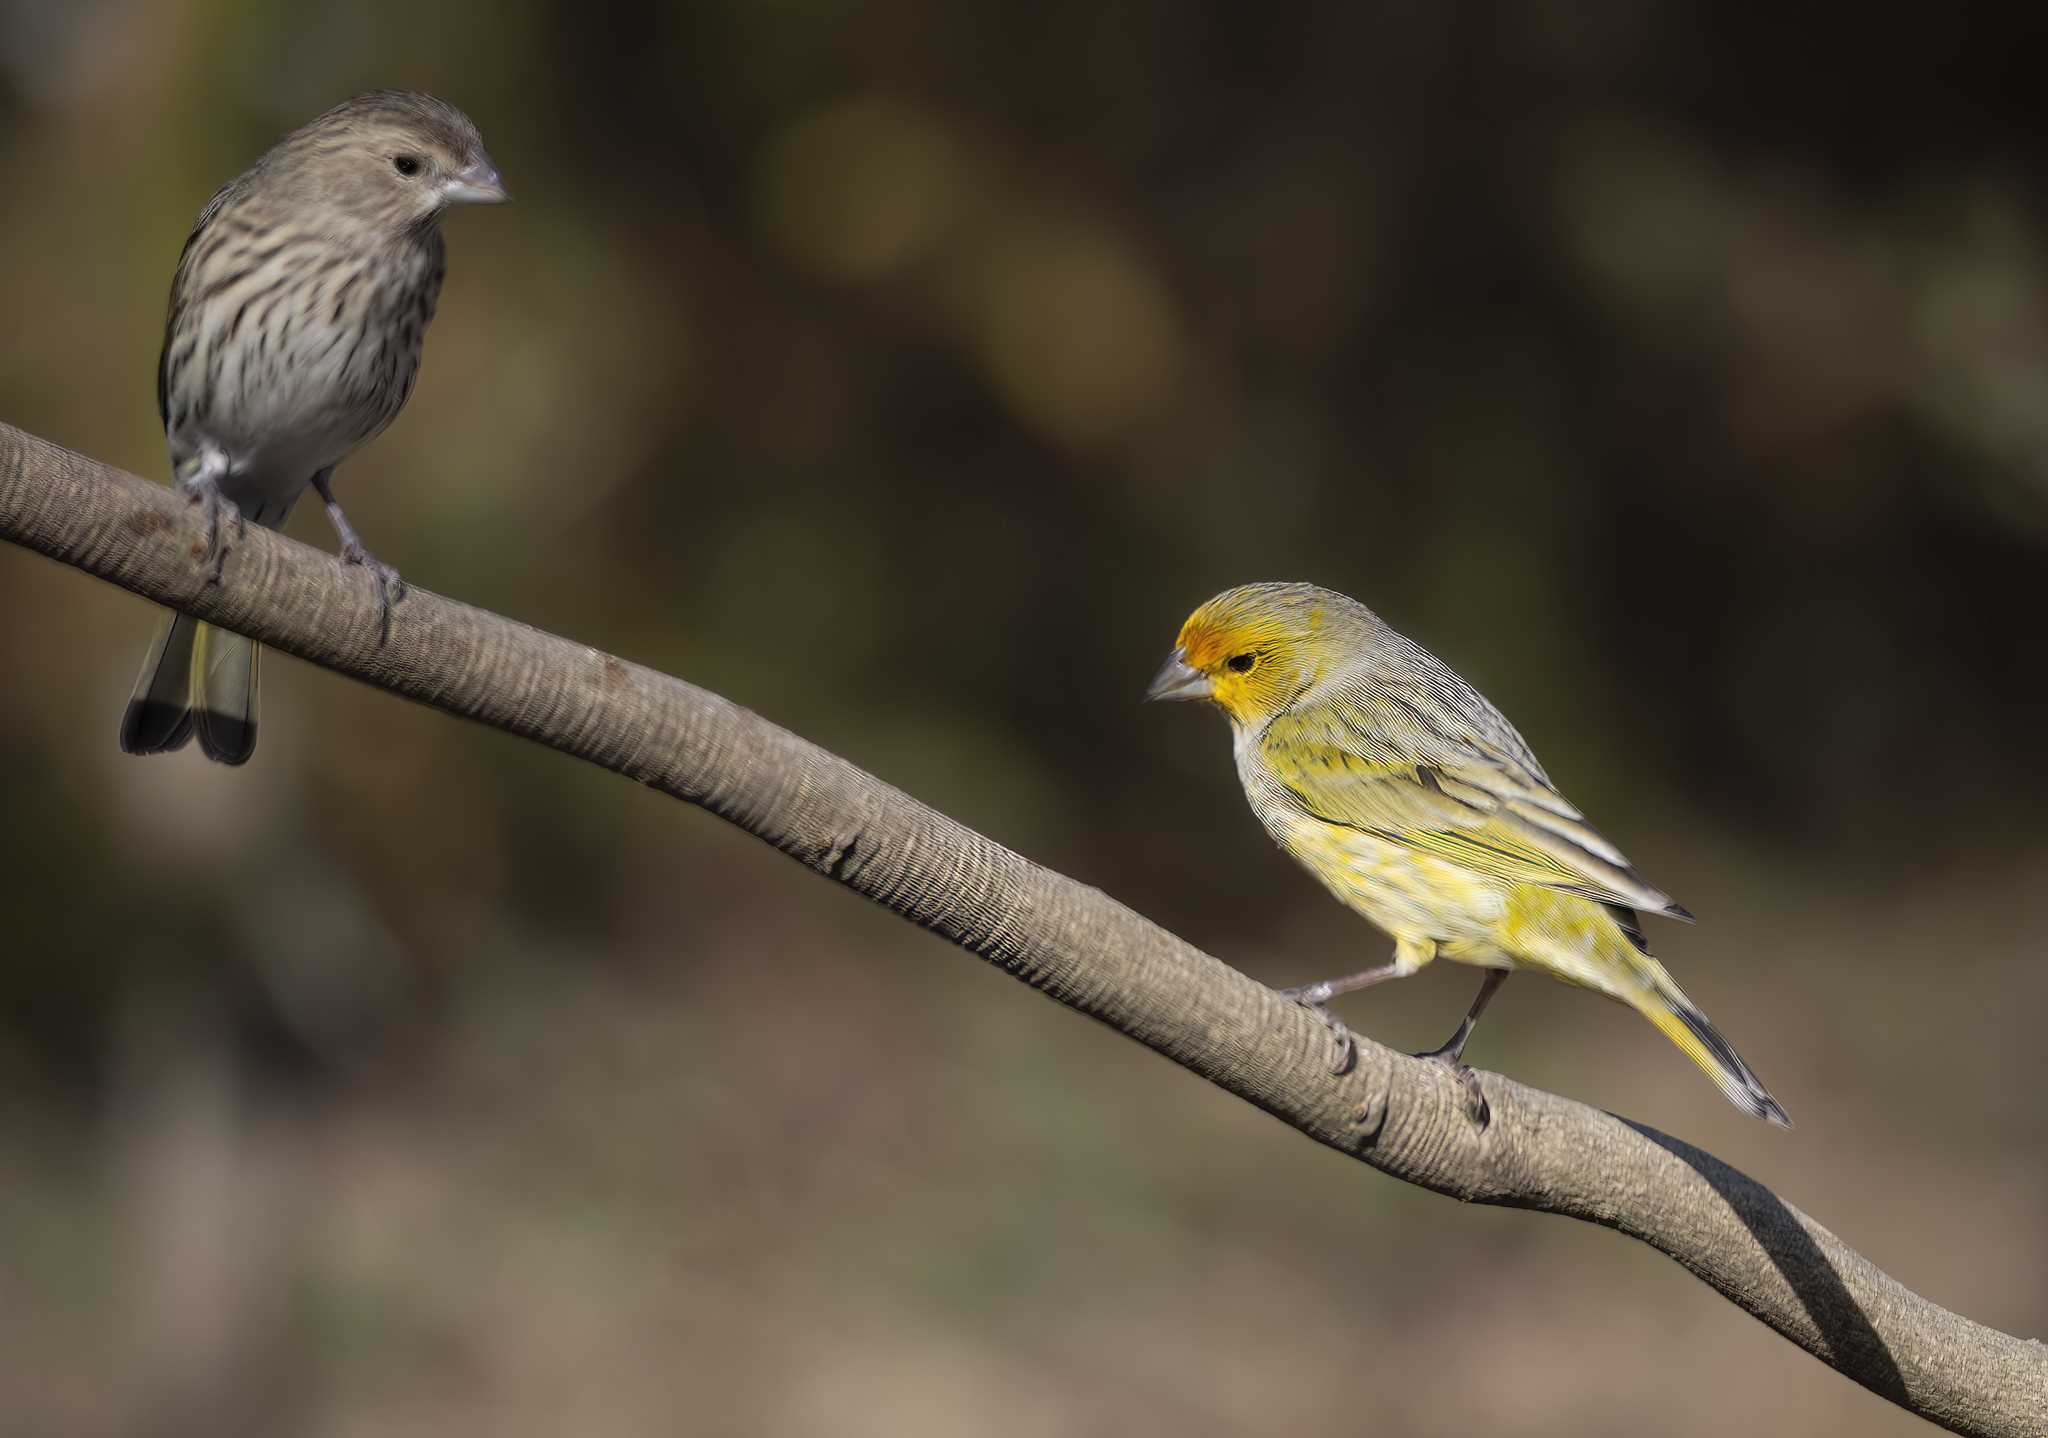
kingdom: Animalia
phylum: Chordata
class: Aves
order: Passeriformes
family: Thraupidae
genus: Sicalis
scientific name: Sicalis flaveola
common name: Saffron finch
